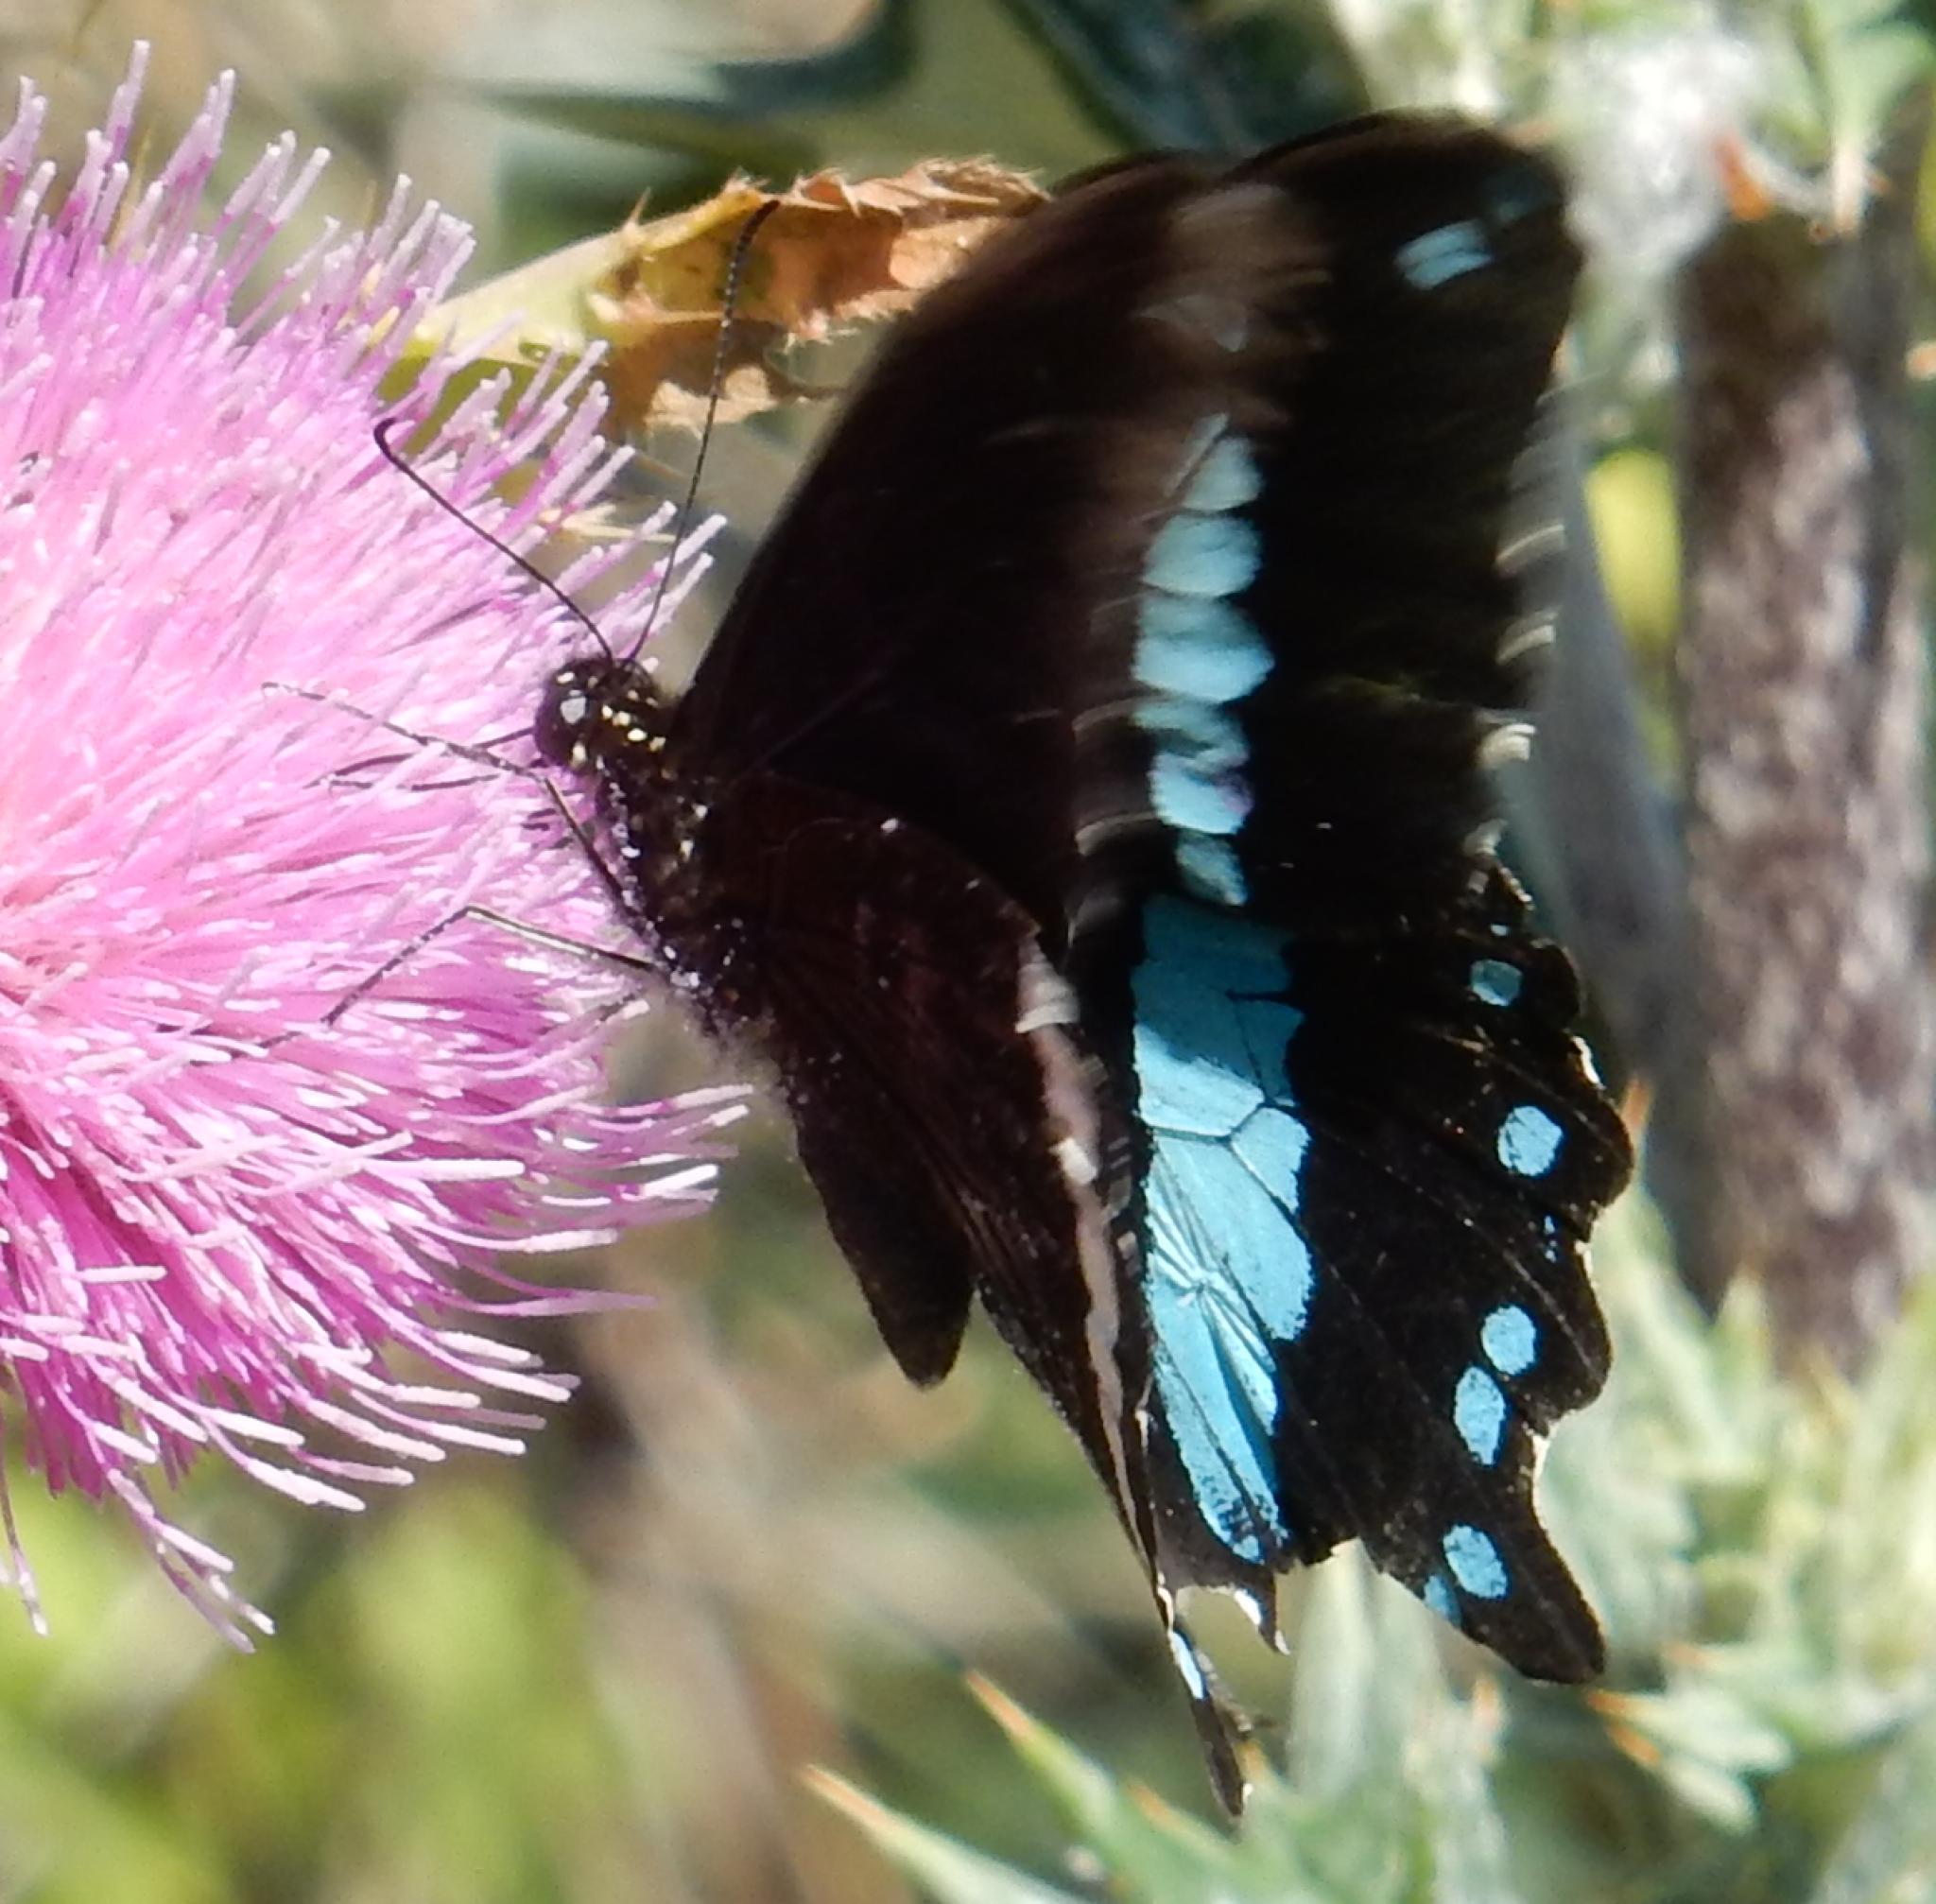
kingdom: Animalia
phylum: Arthropoda
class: Insecta
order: Lepidoptera
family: Papilionidae
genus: Papilio
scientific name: Papilio nireus
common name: Greenbanded swallowtail
